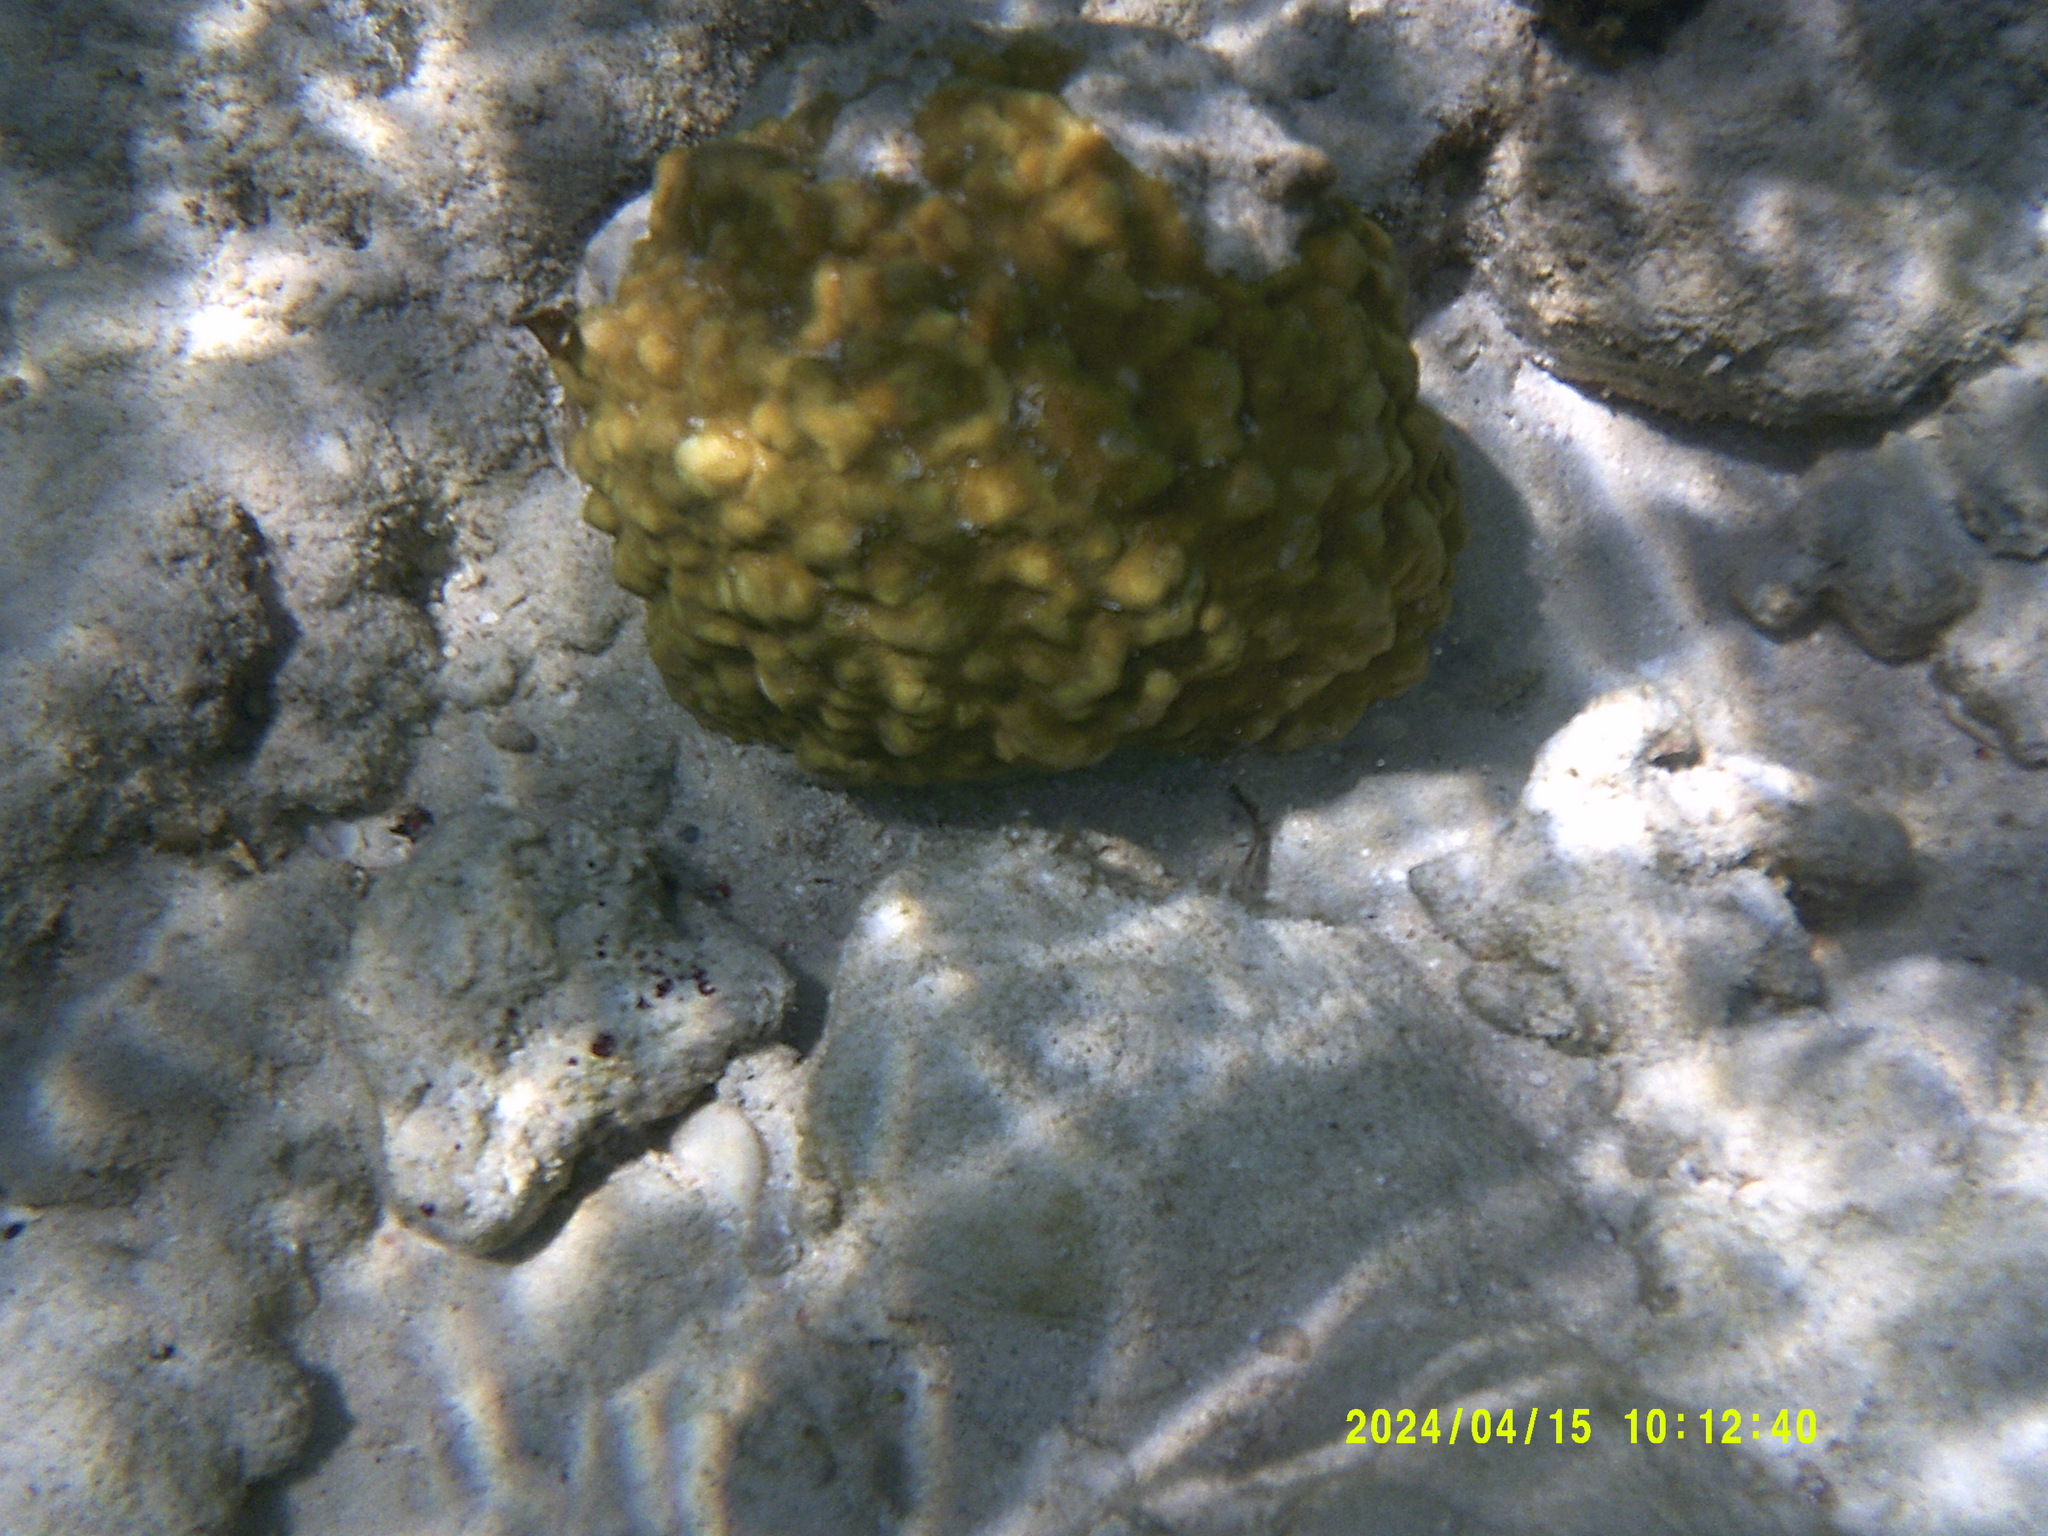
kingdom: Animalia
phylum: Cnidaria
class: Anthozoa
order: Scleractinia
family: Poritidae
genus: Porites
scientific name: Porites astreoides
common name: Mustard hill coral
